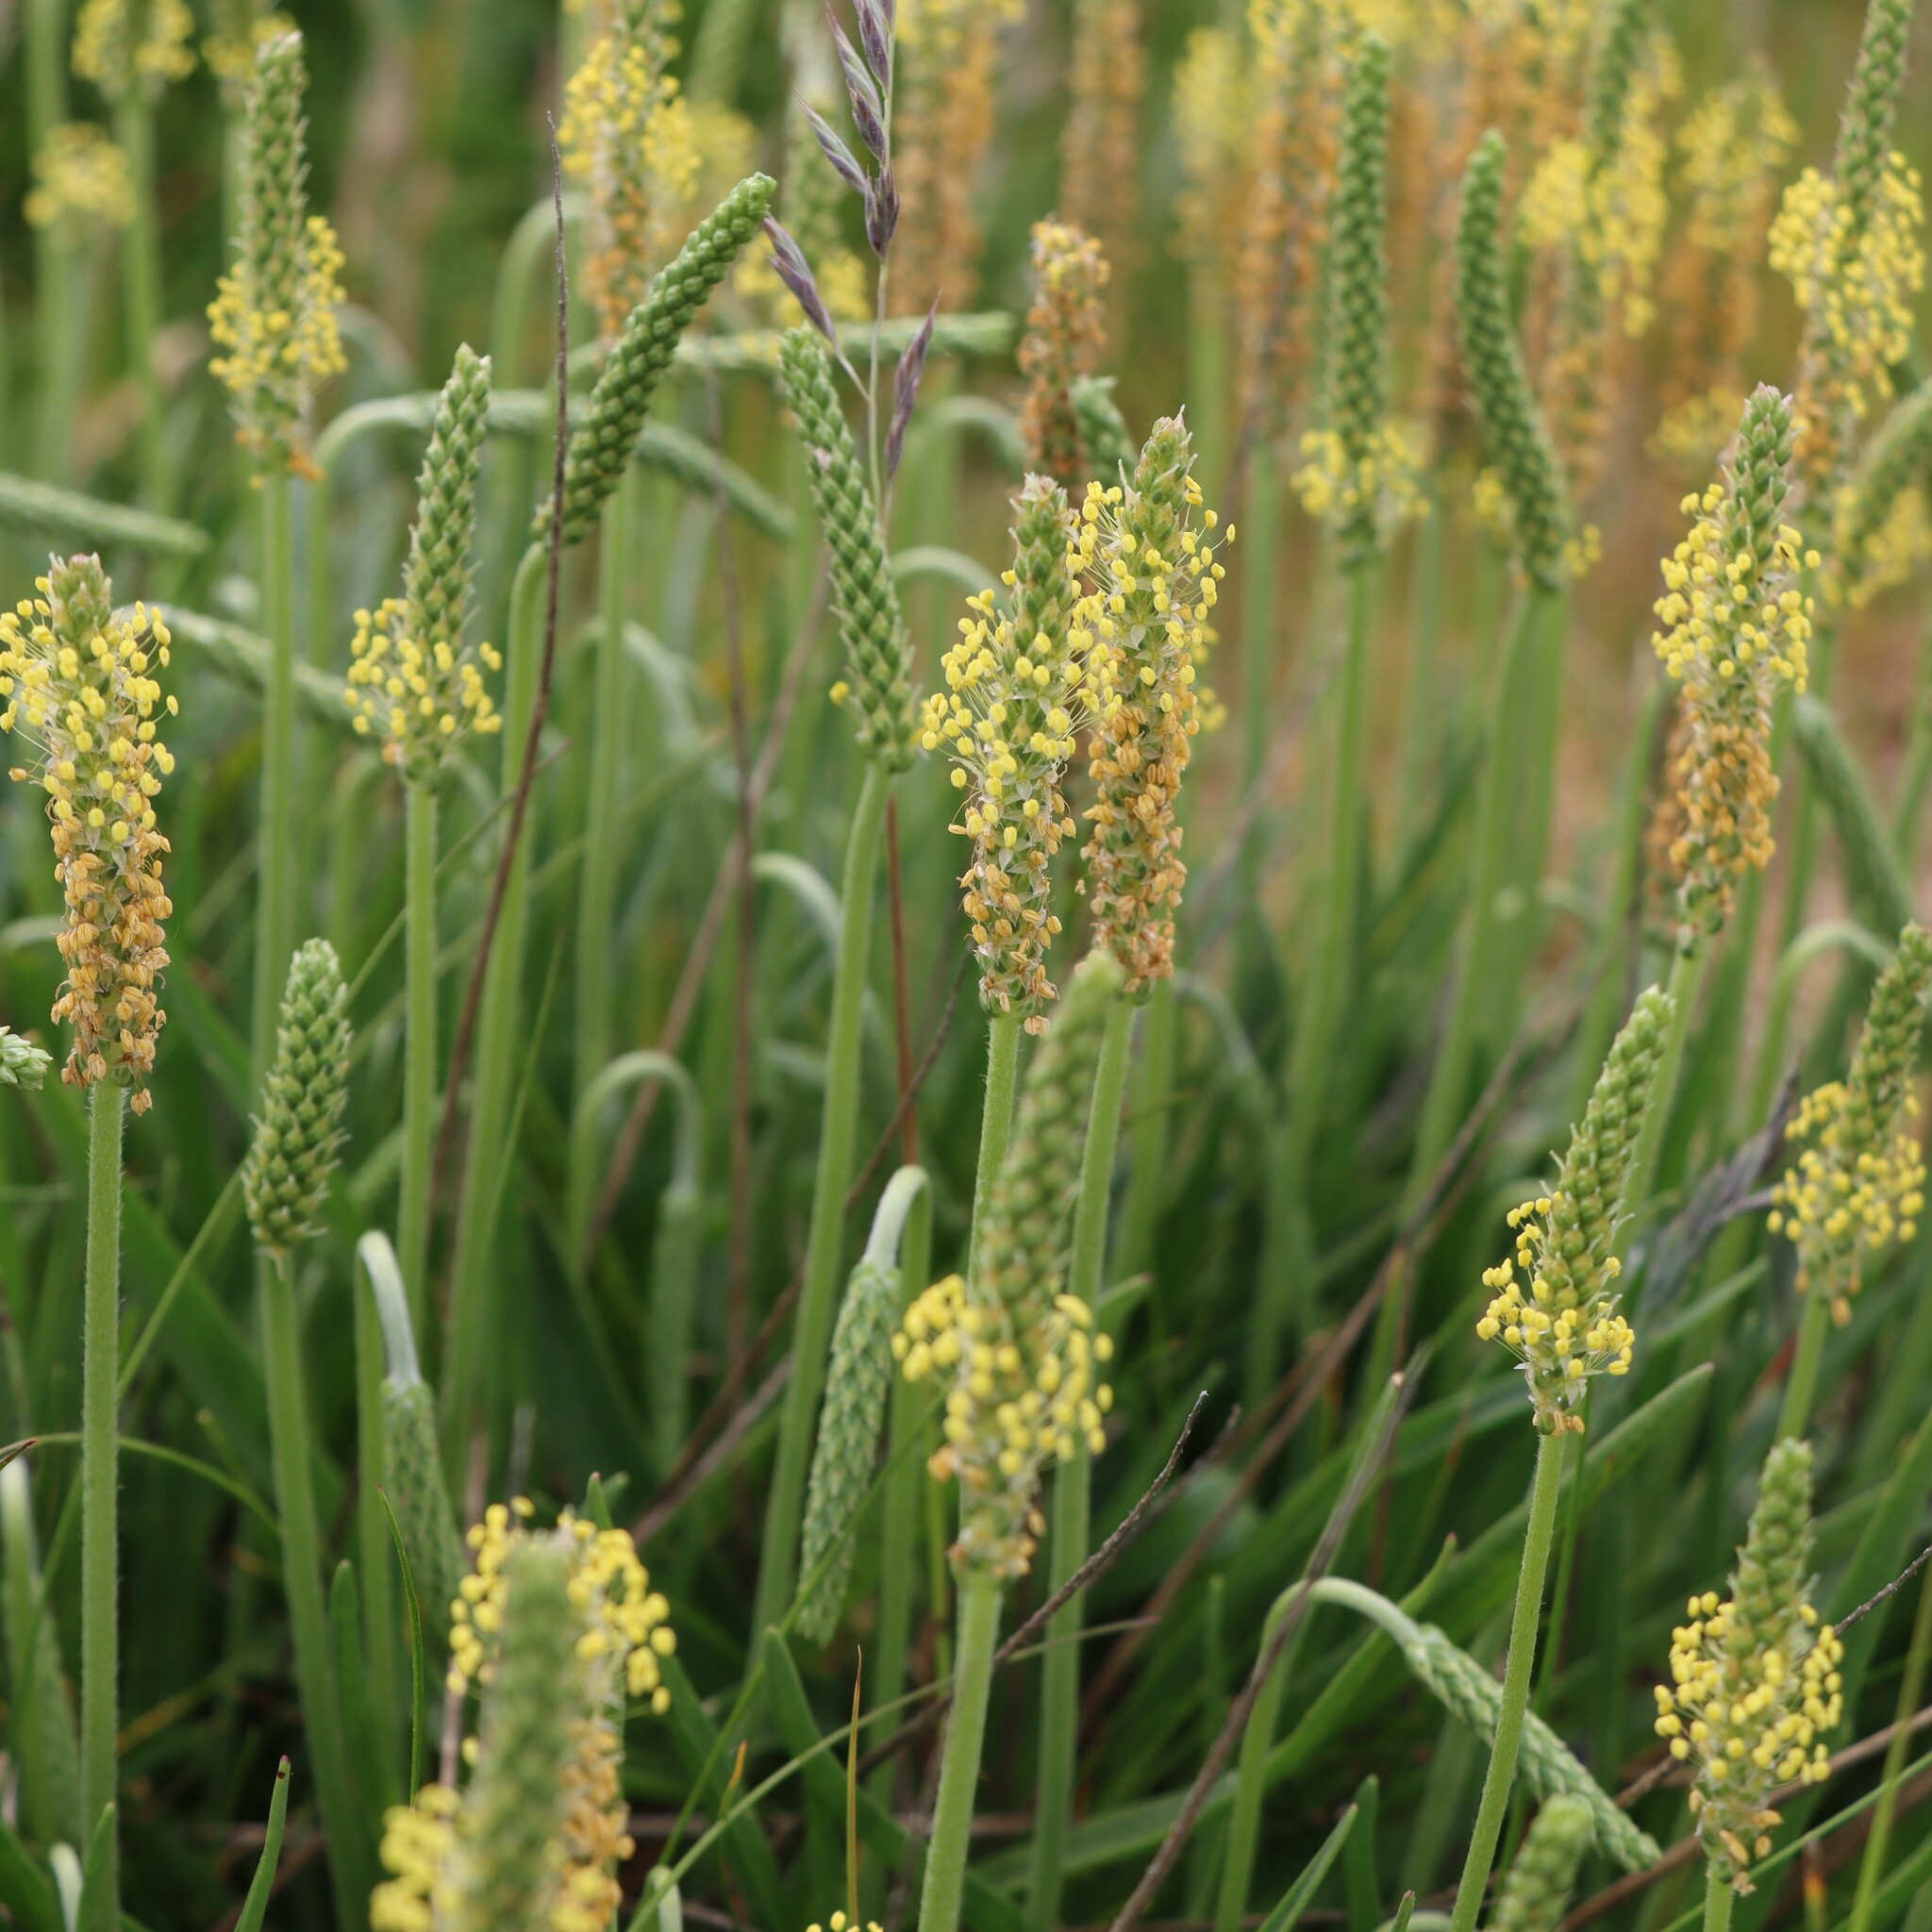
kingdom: Plantae
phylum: Tracheophyta
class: Magnoliopsida
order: Lamiales
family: Plantaginaceae
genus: Plantago
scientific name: Plantago maritima
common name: Sea plantain
